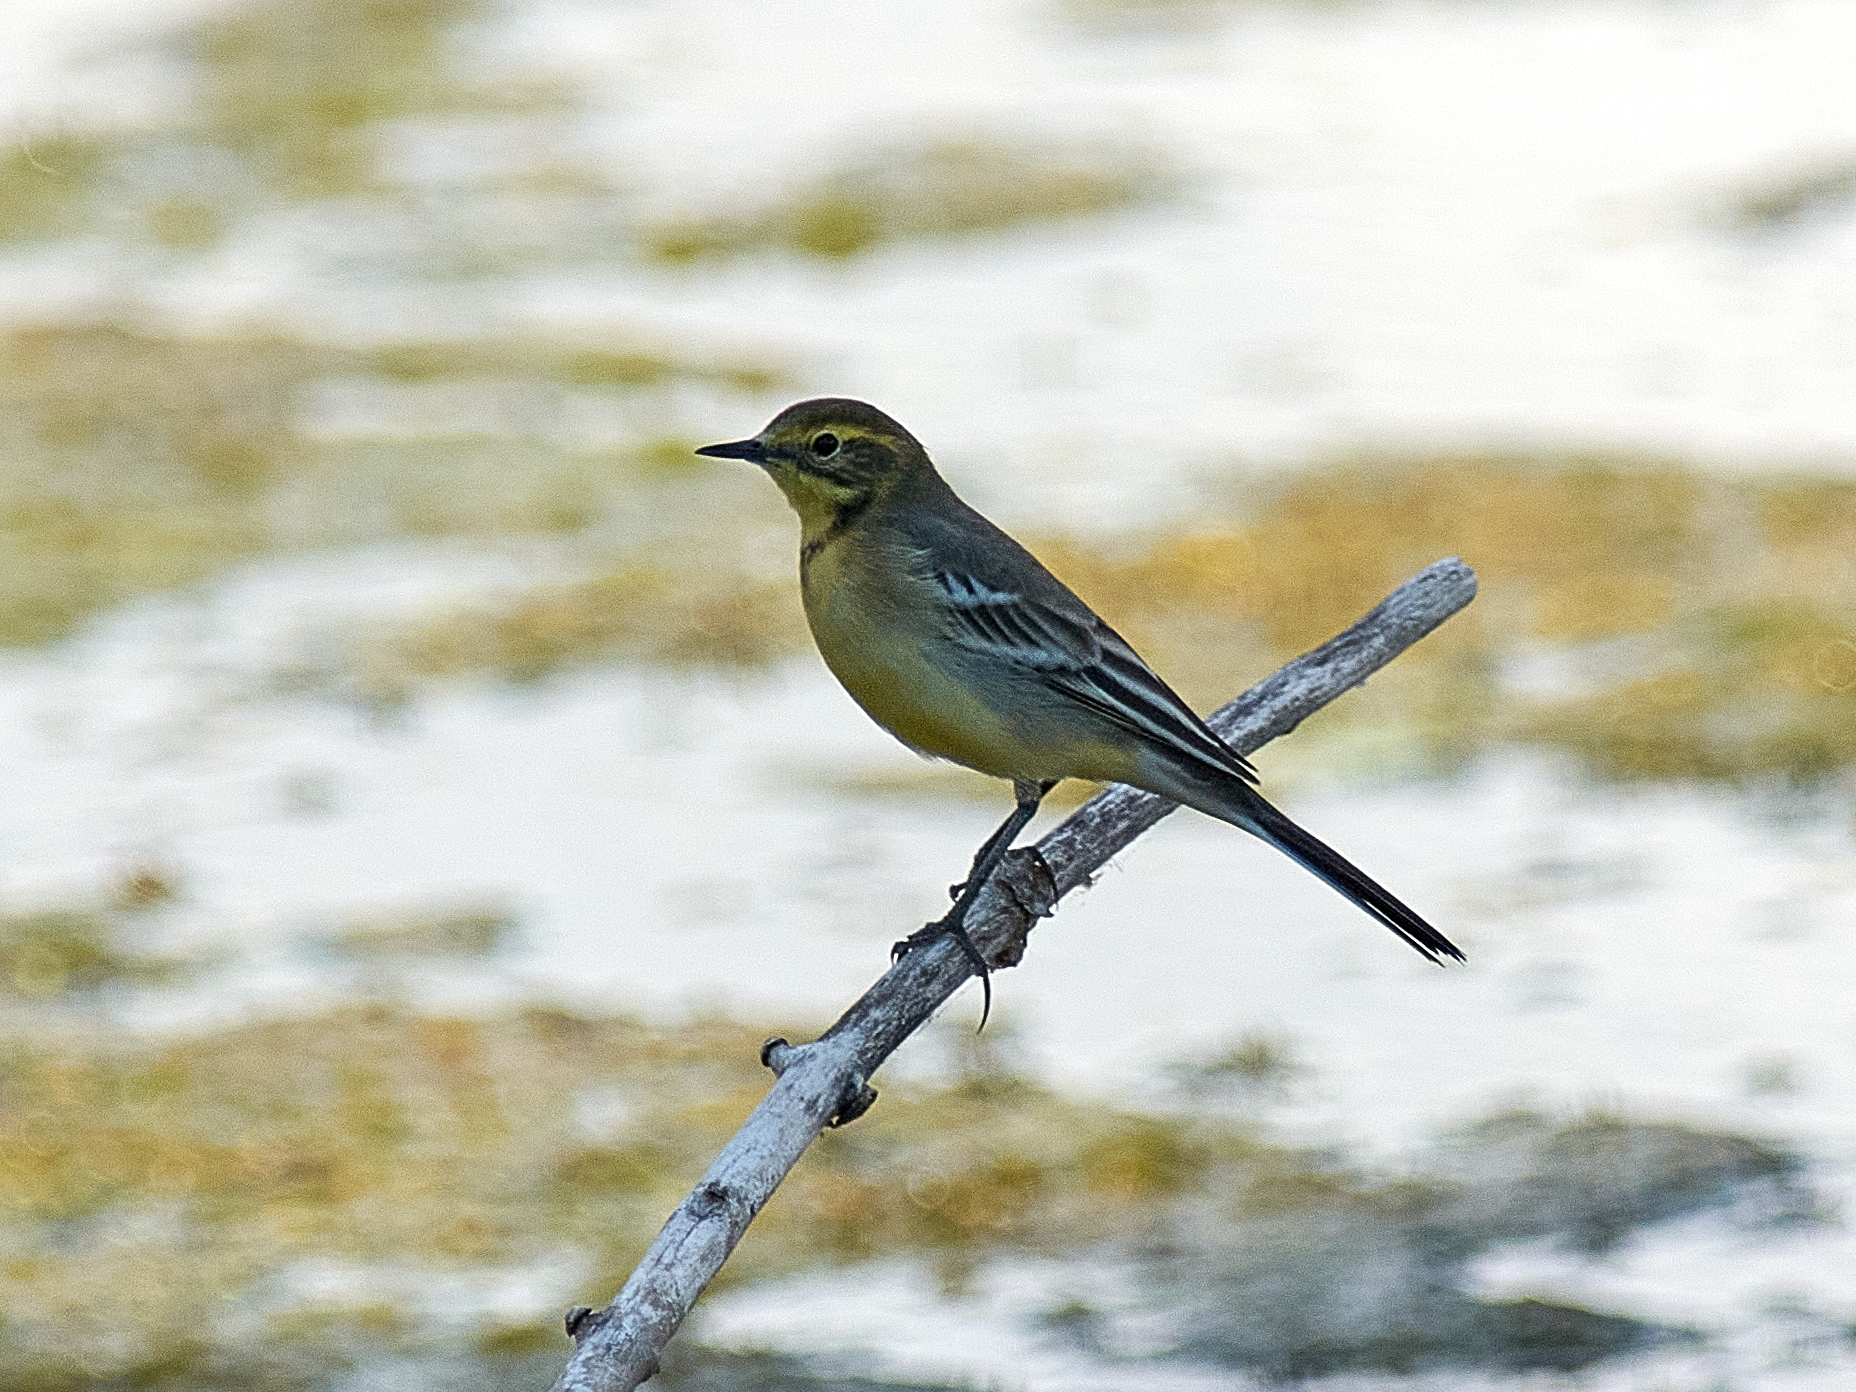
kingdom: Animalia
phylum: Chordata
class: Aves
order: Passeriformes
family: Motacillidae
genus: Motacilla
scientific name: Motacilla citreola
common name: Citrine wagtail
